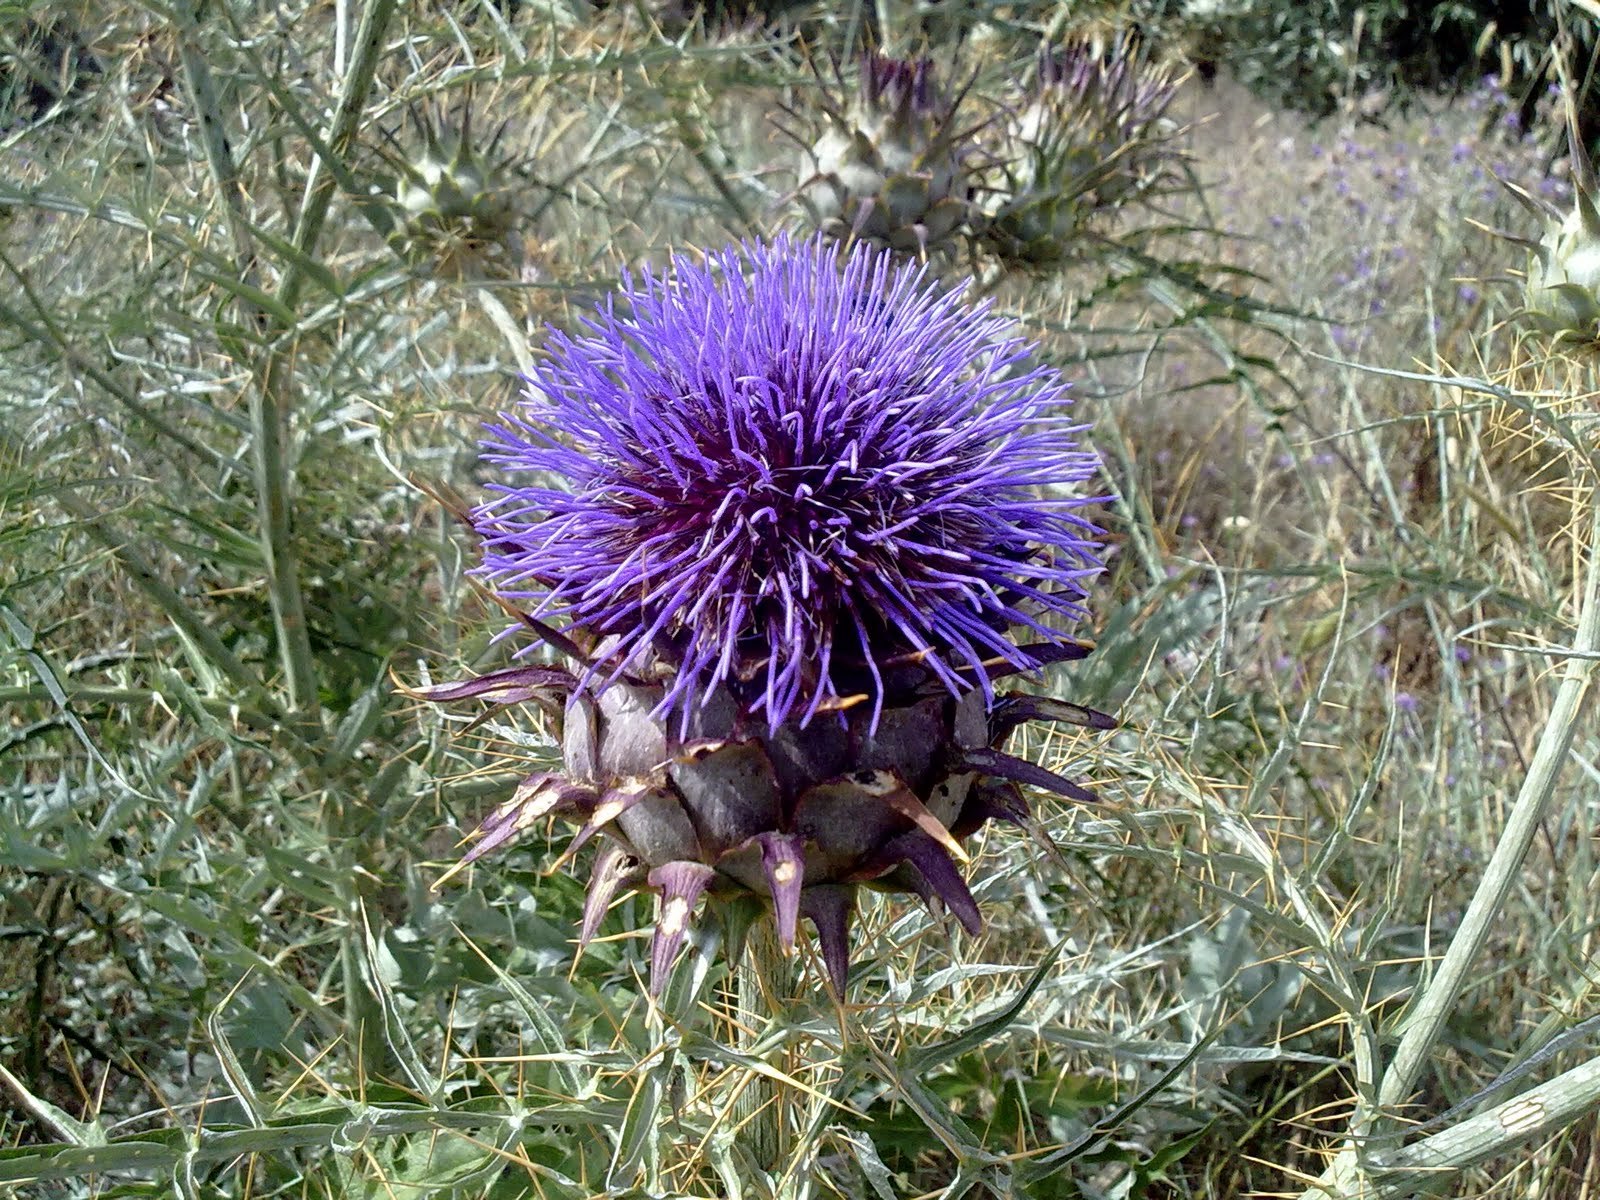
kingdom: Plantae
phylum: Tracheophyta
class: Magnoliopsida
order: Asterales
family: Asteraceae
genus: Cynara
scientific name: Cynara cardunculus
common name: Globe artichoke
